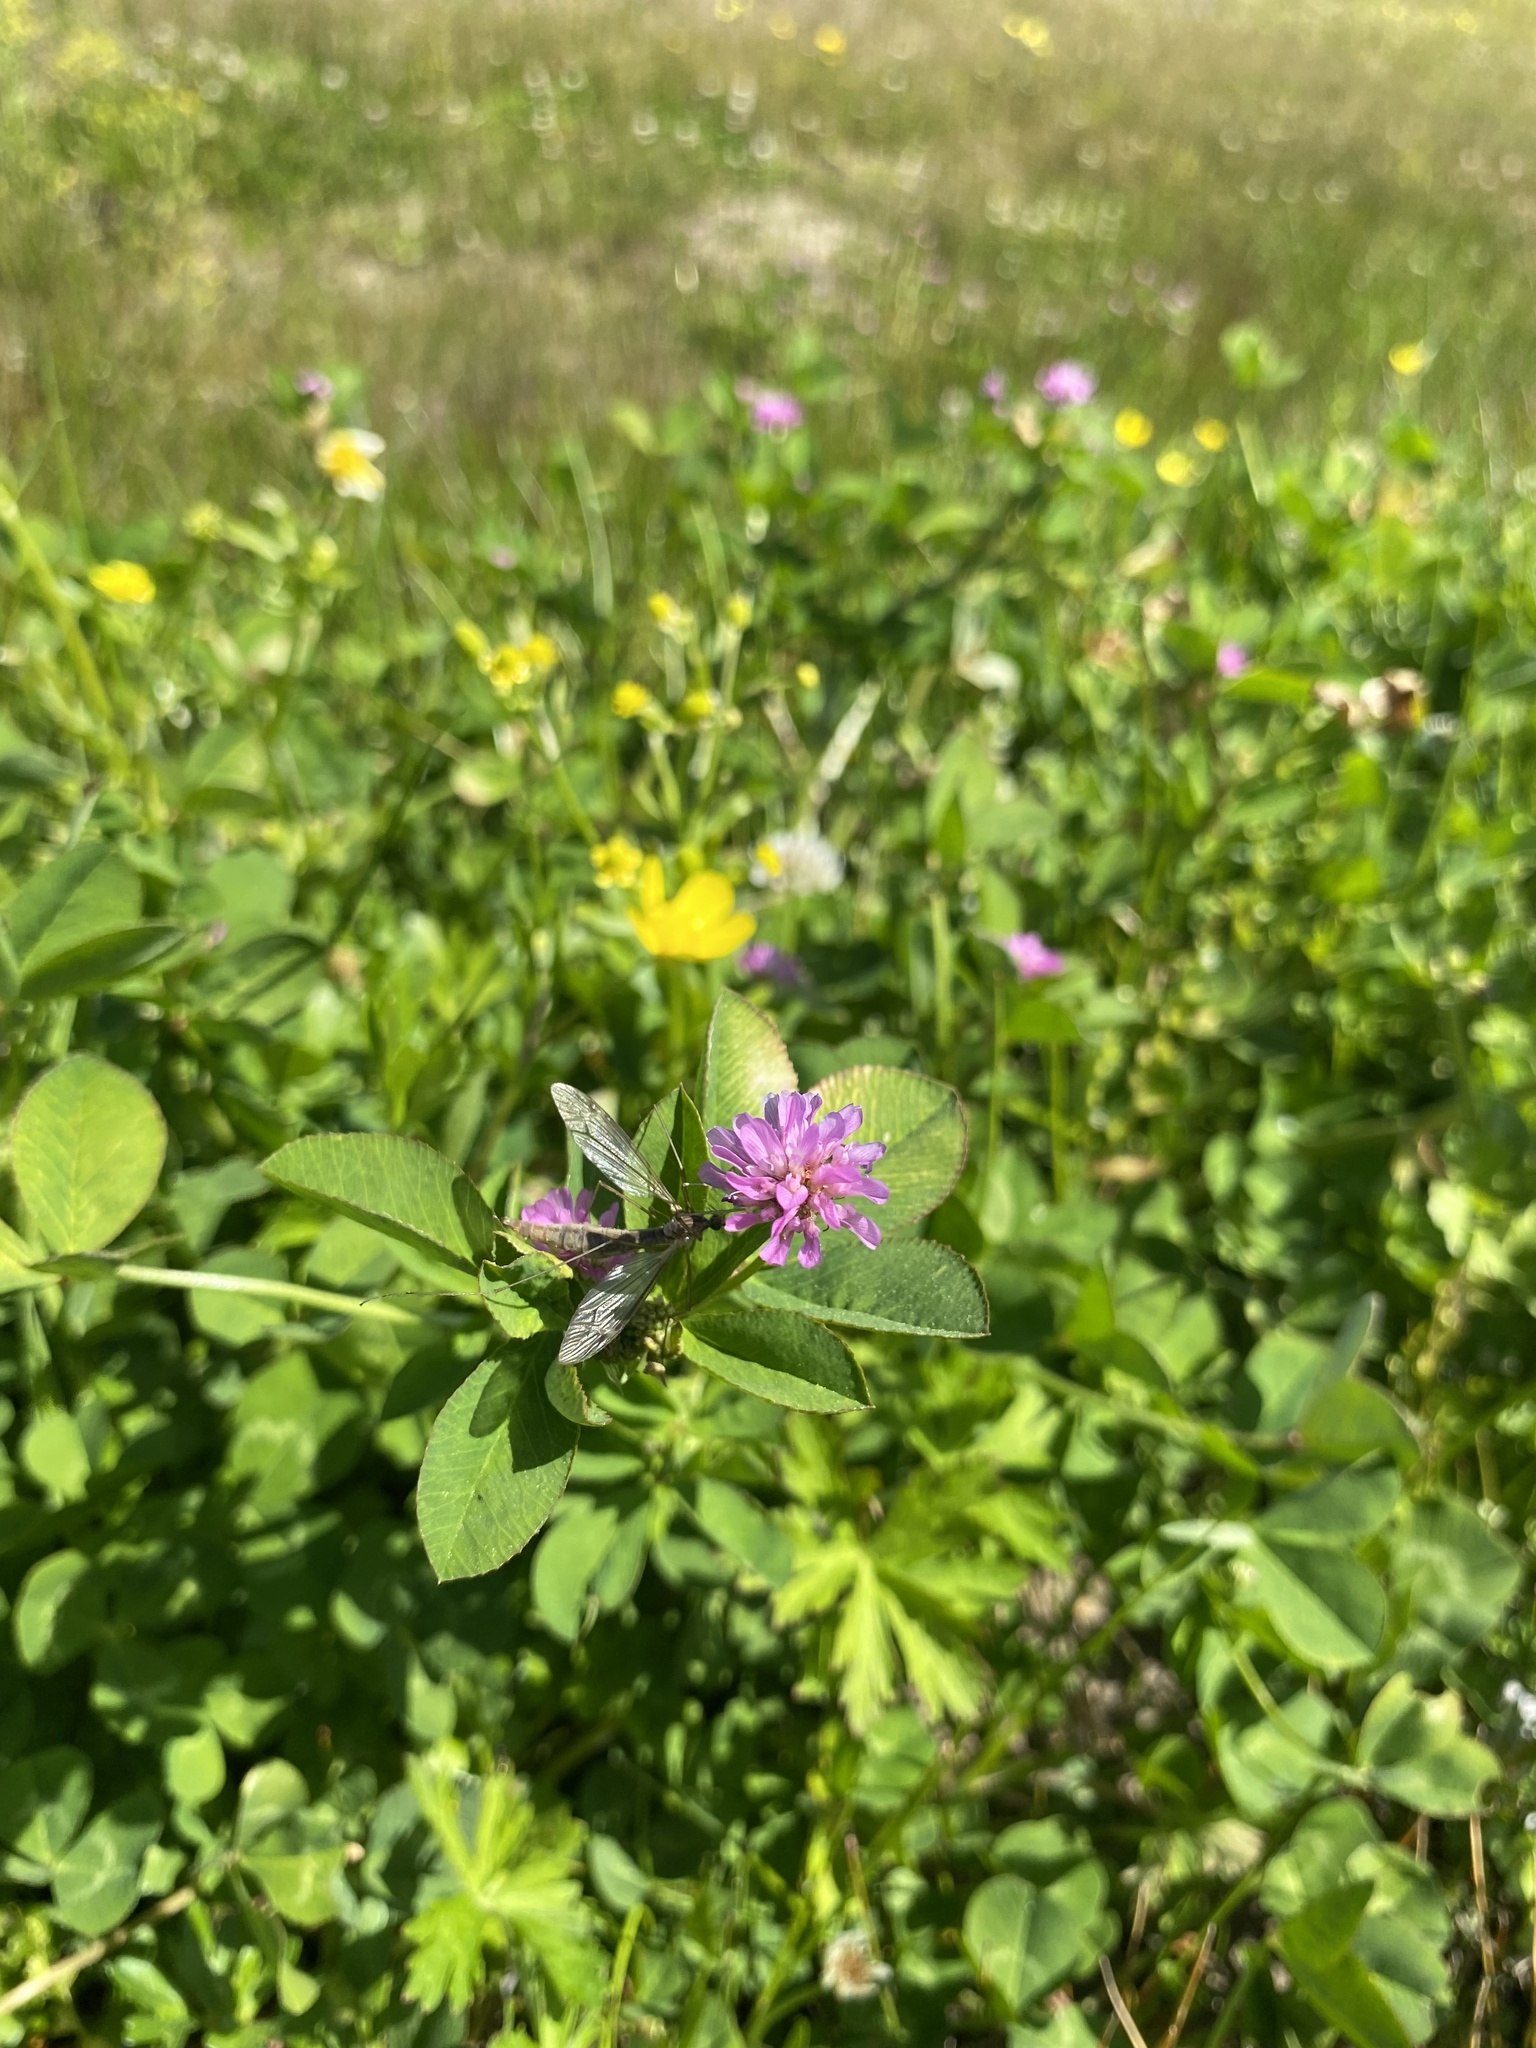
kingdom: Plantae
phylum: Tracheophyta
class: Magnoliopsida
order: Fabales
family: Fabaceae
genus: Trifolium
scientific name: Trifolium resupinatum
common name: Reversed clover
